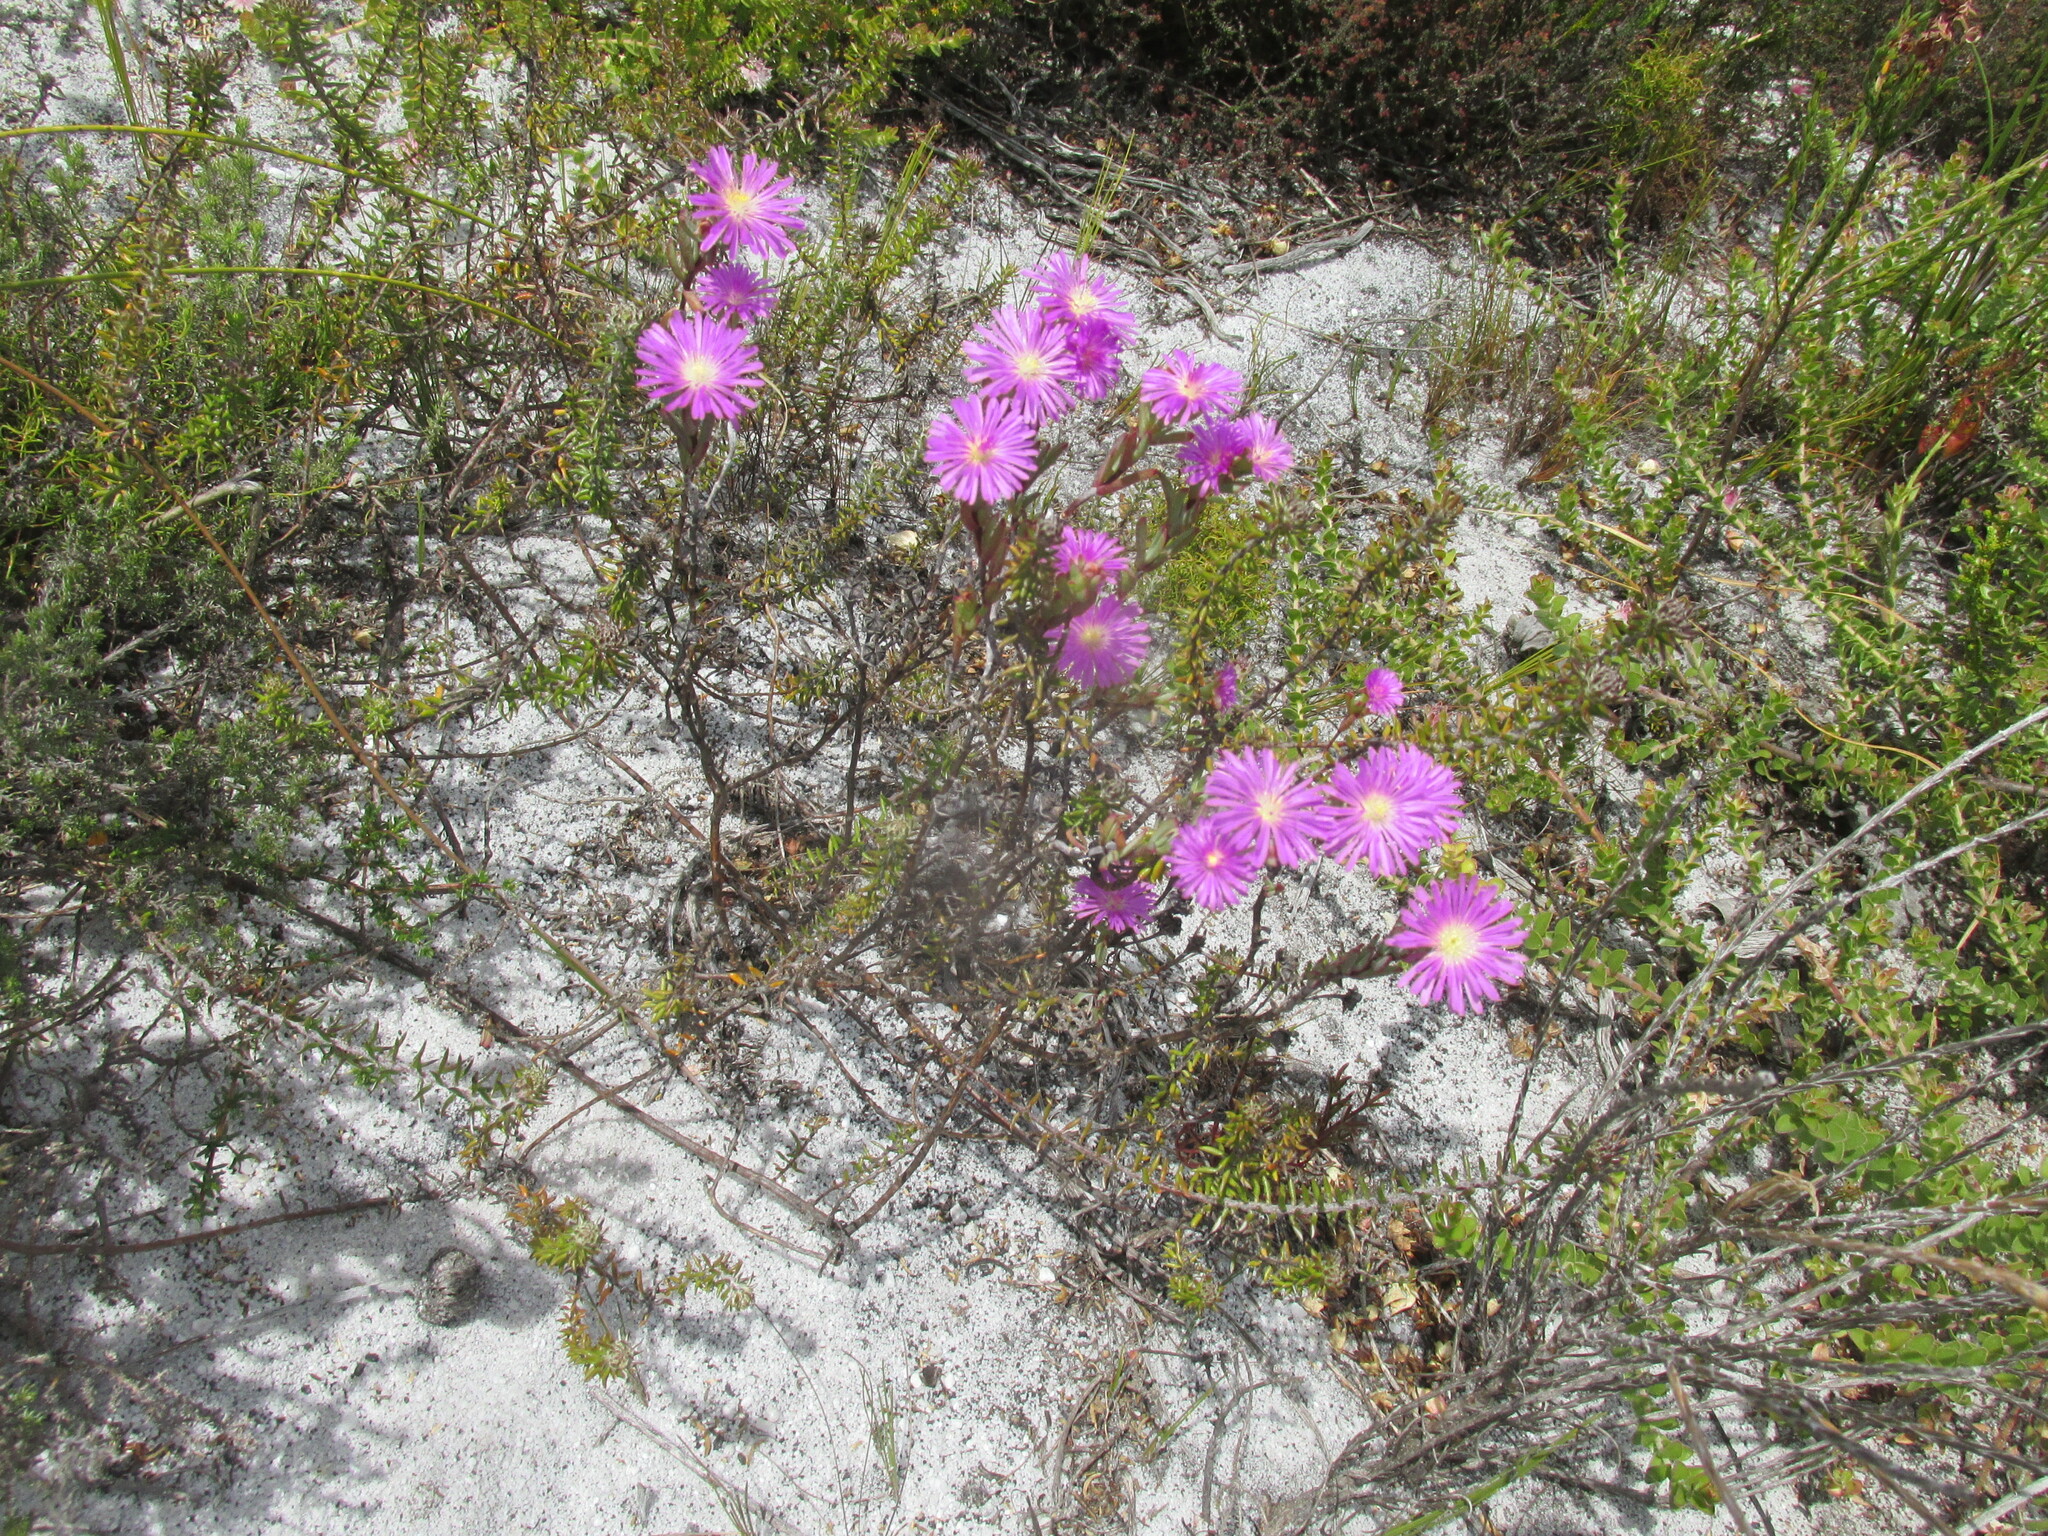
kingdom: Plantae
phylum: Tracheophyta
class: Magnoliopsida
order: Caryophyllales
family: Aizoaceae
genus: Oscularia
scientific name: Oscularia falciformis
